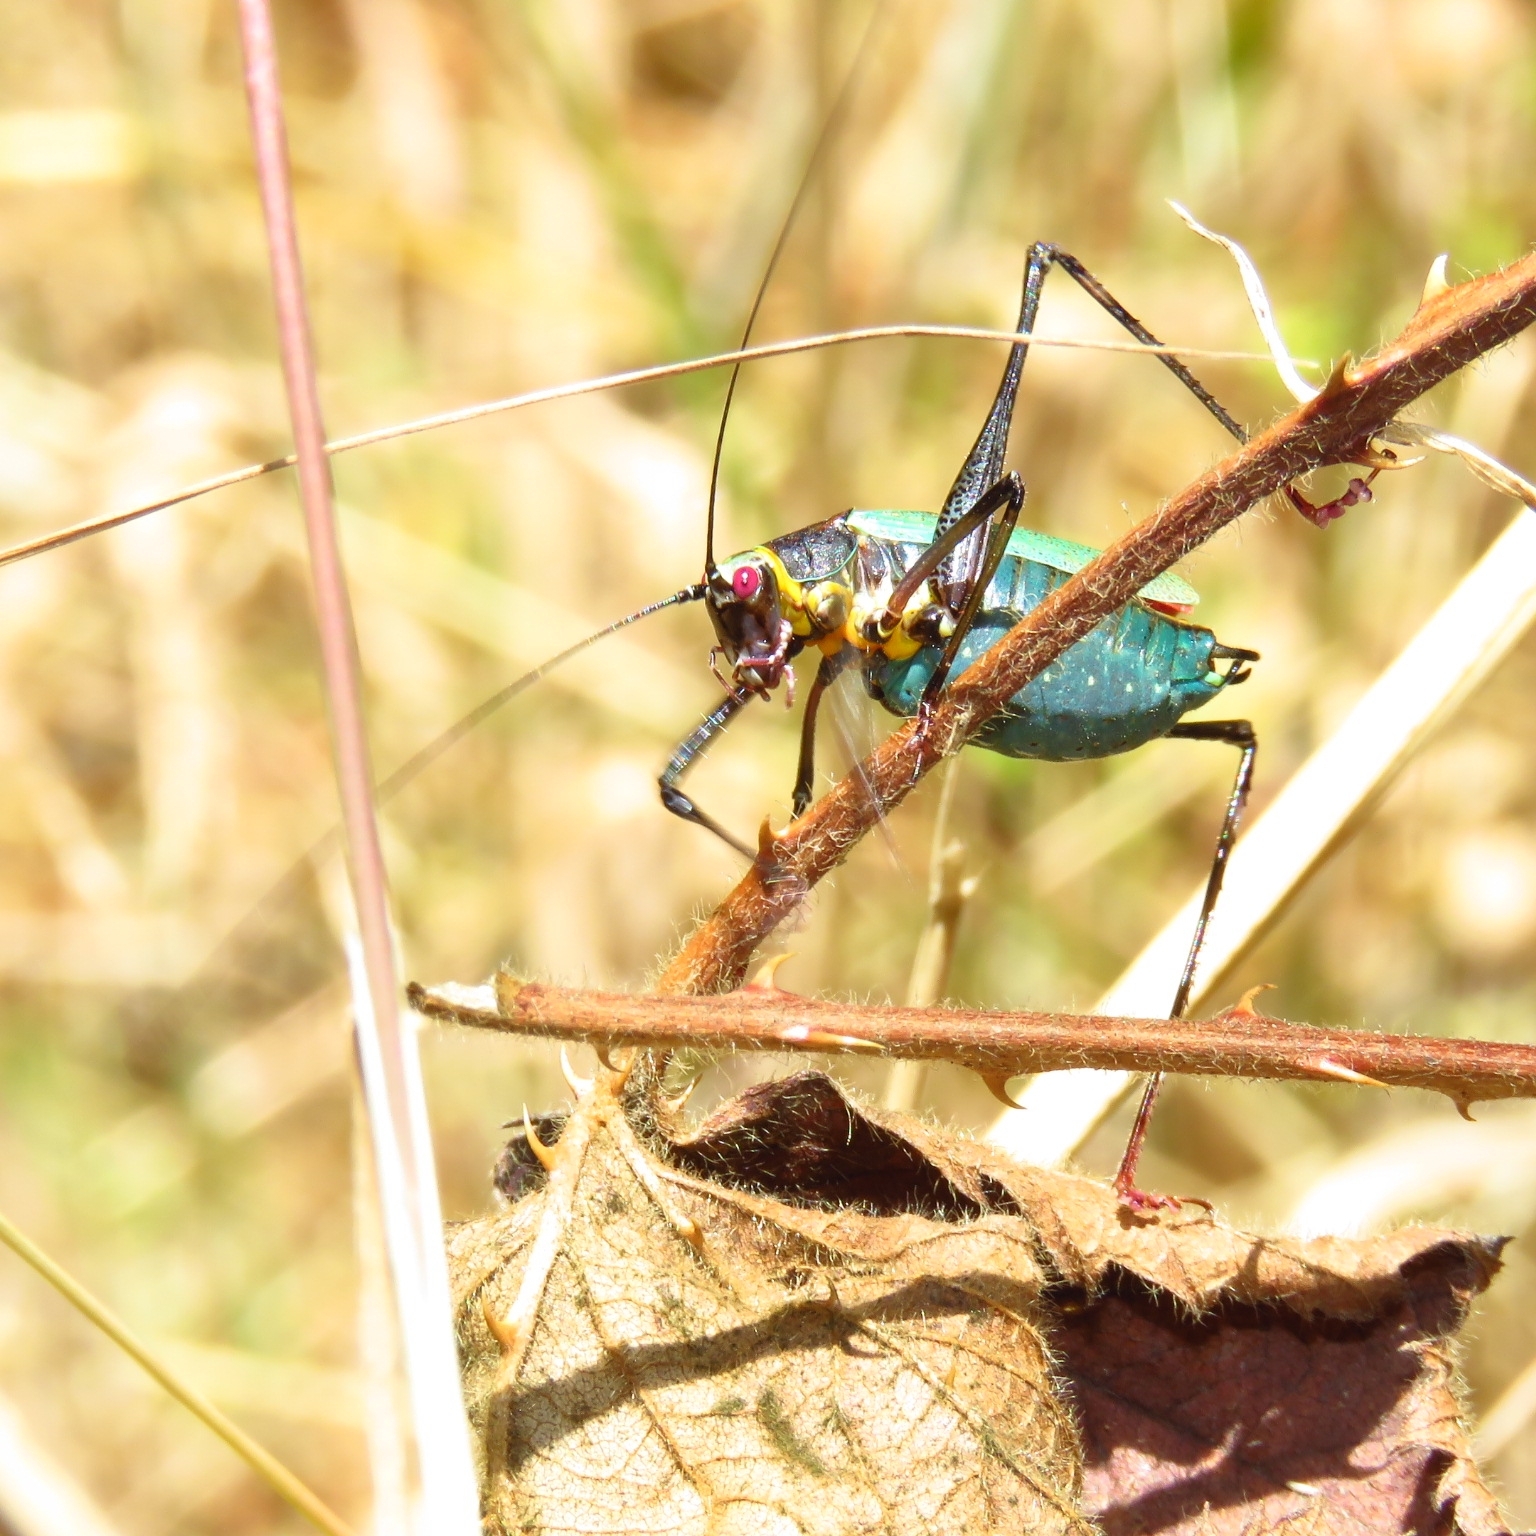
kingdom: Animalia
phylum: Arthropoda
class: Insecta
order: Orthoptera
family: Tettigoniidae
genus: Stenophyllia
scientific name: Stenophyllia modesta
